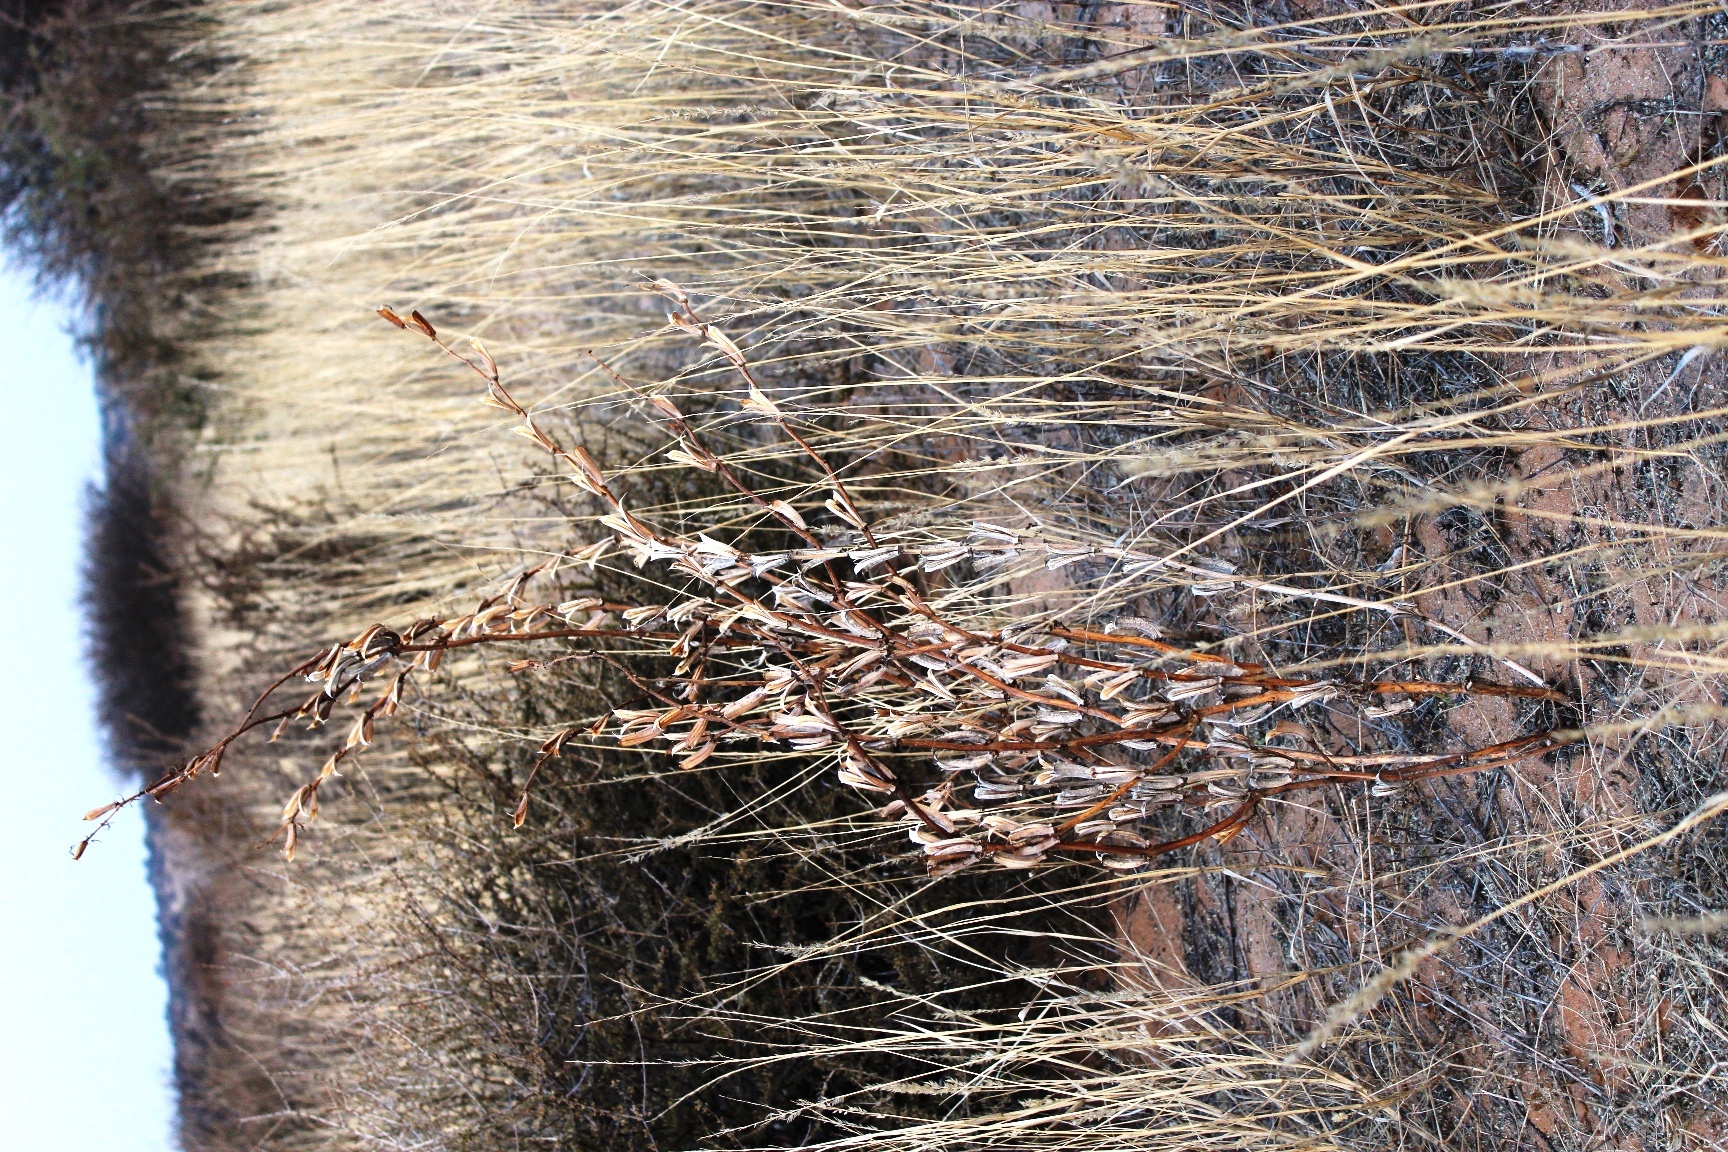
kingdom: Plantae
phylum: Tracheophyta
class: Magnoliopsida
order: Lamiales
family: Pedaliaceae
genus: Sesamum
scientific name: Sesamum triphyllum
